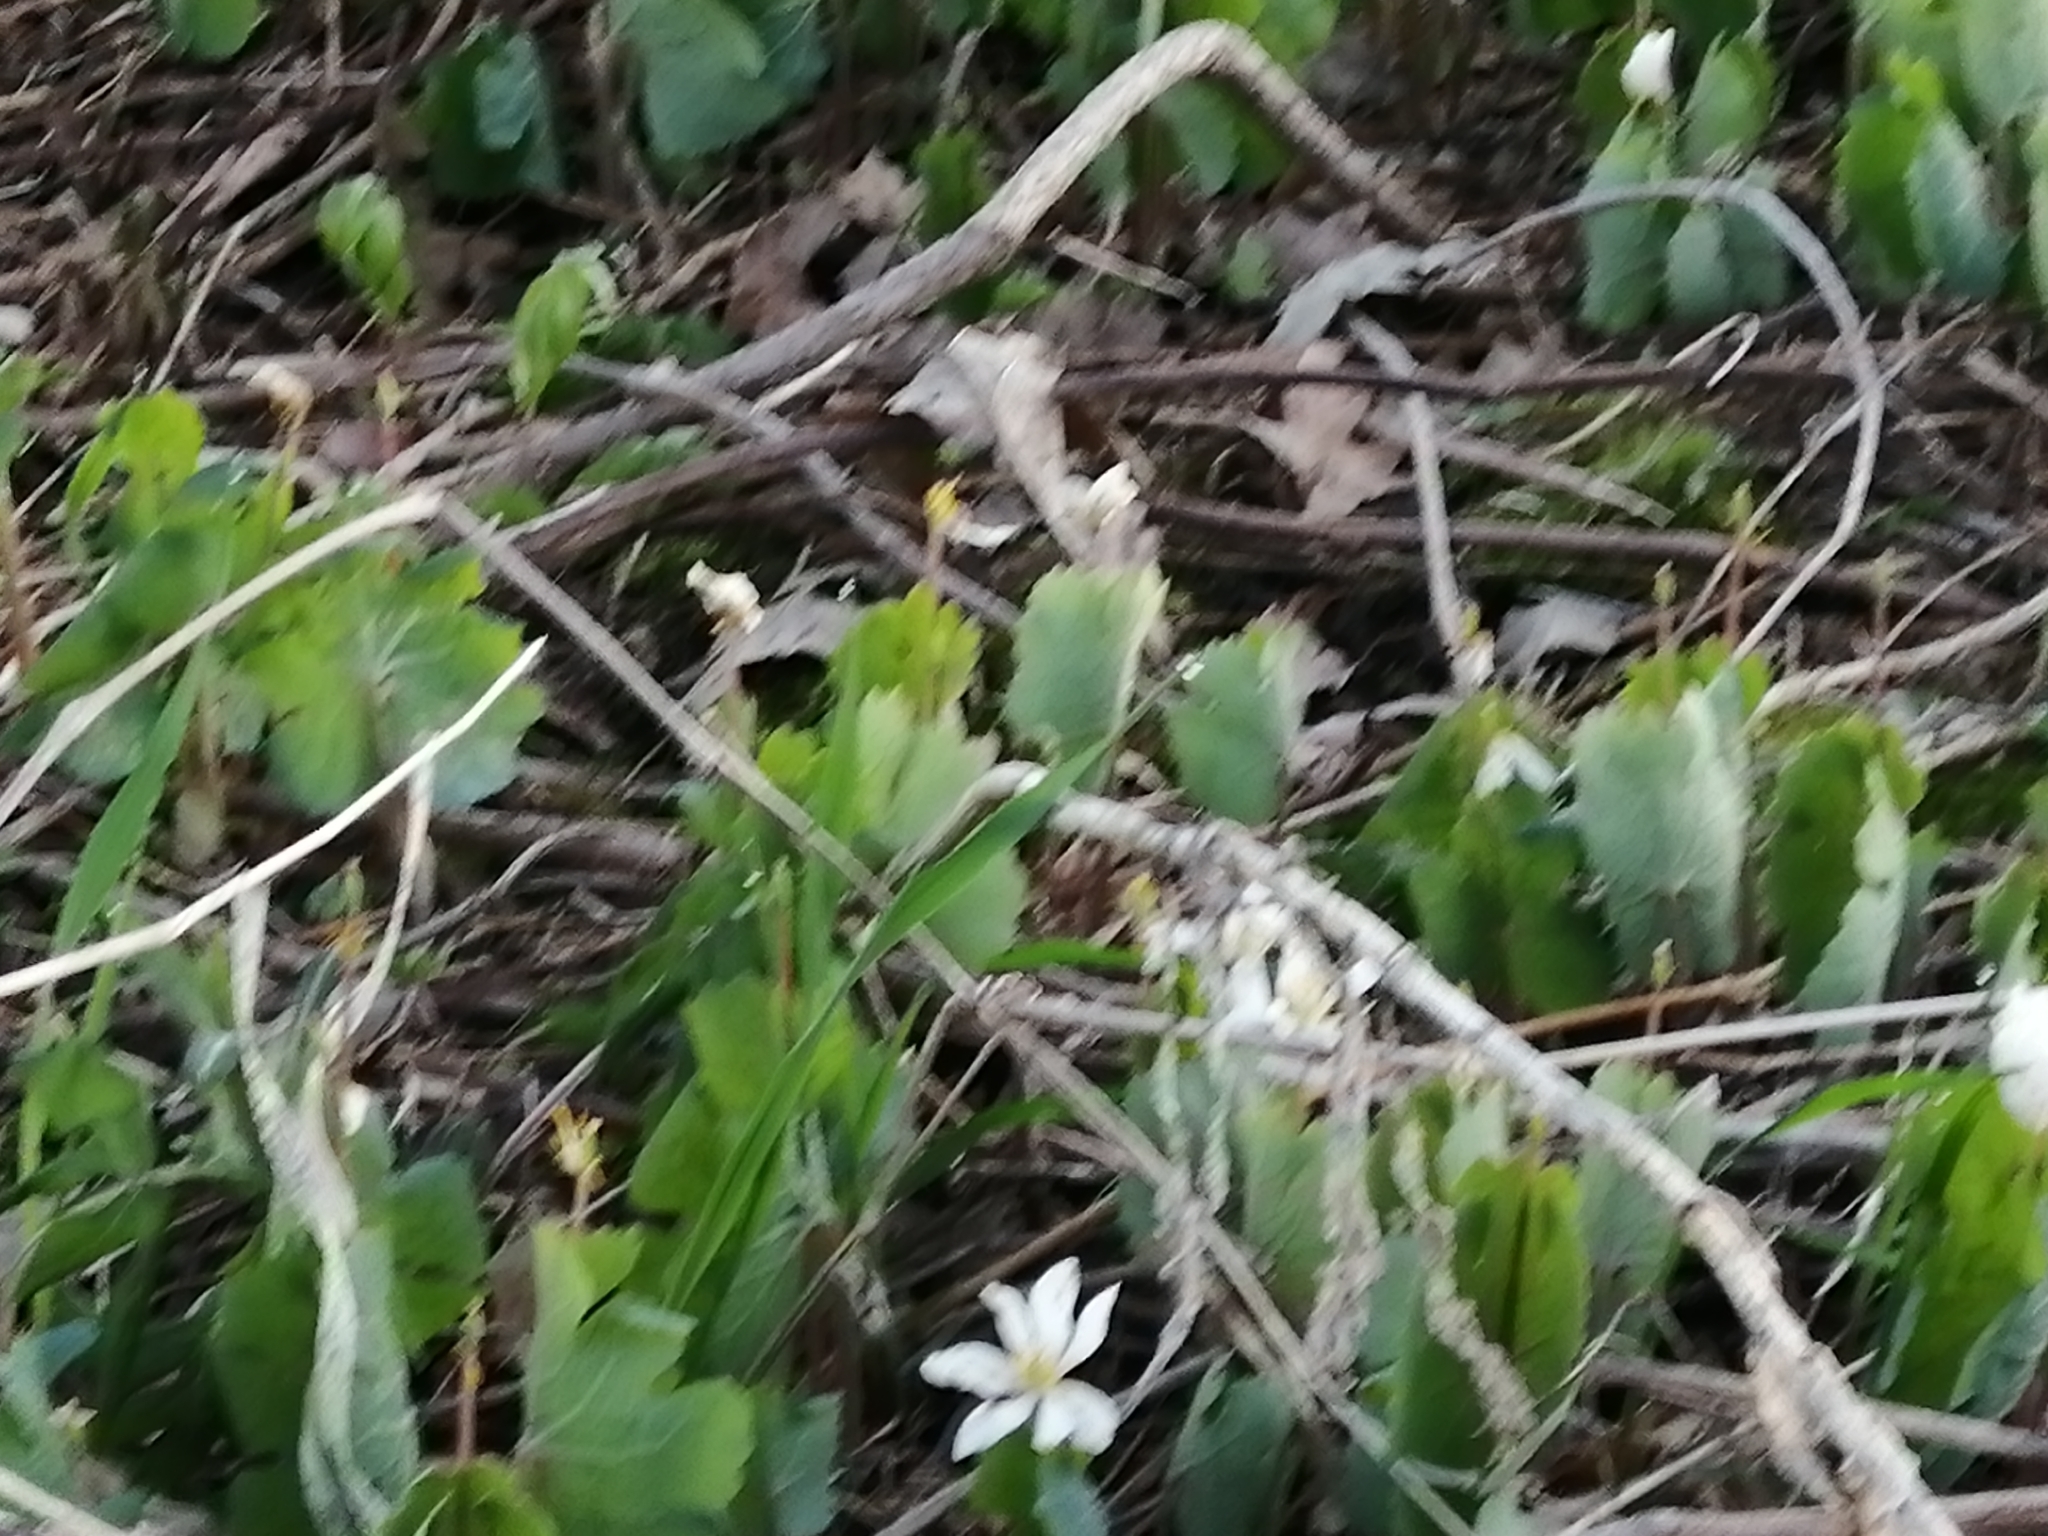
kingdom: Plantae
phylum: Tracheophyta
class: Magnoliopsida
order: Ranunculales
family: Papaveraceae
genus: Sanguinaria
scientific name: Sanguinaria canadensis
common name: Bloodroot
